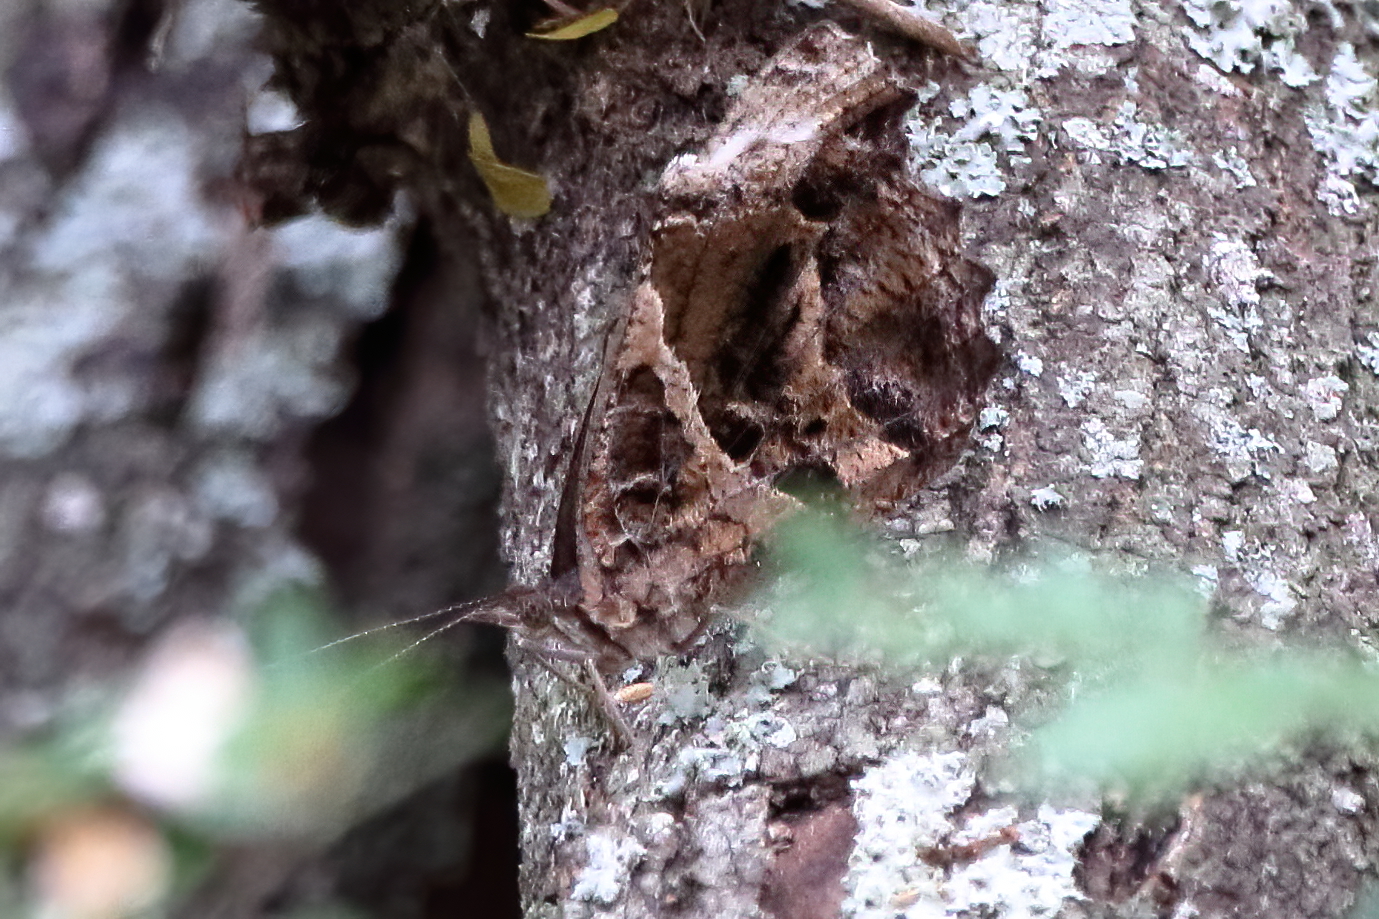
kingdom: Animalia
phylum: Arthropoda
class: Insecta
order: Lepidoptera
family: Nymphalidae
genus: Myscelia
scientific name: Myscelia ethusa
